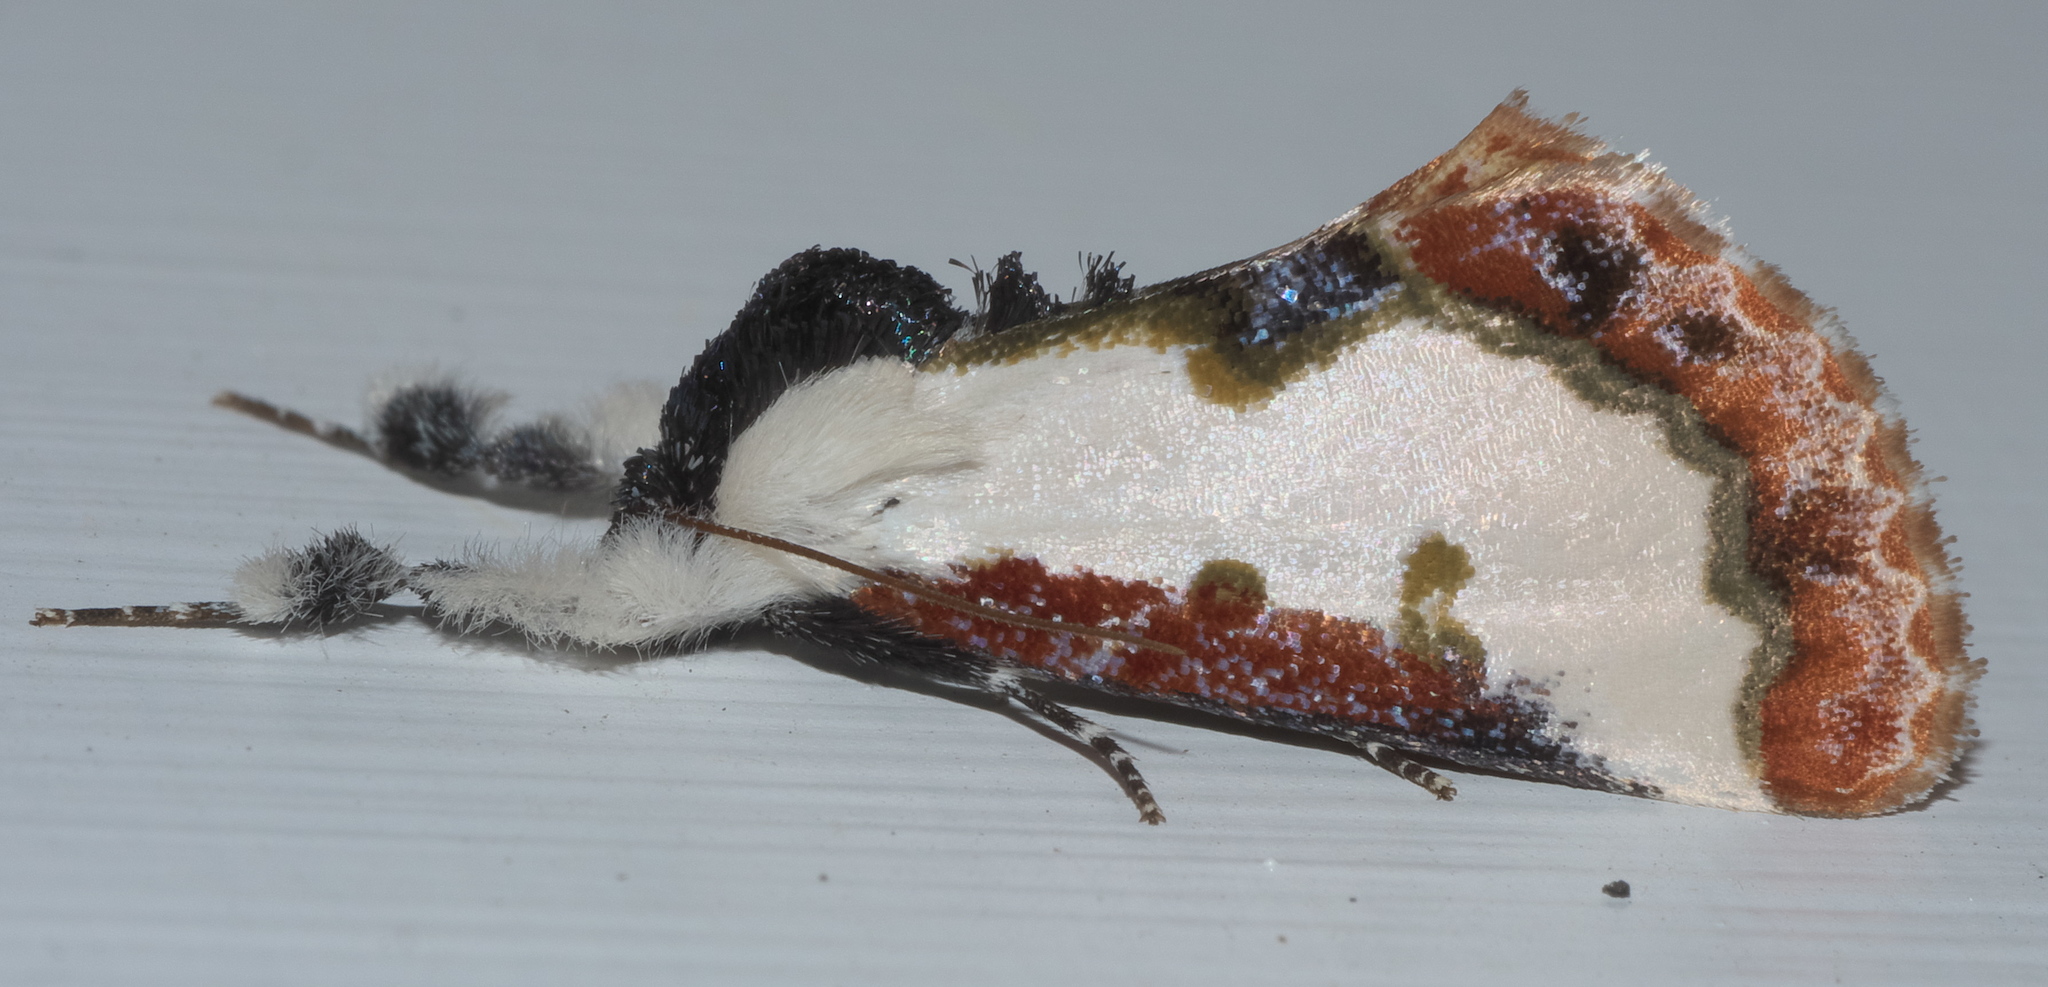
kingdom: Animalia
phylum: Arthropoda
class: Insecta
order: Lepidoptera
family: Noctuidae
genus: Eudryas
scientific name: Eudryas unio
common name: Pearly wood-nymph
